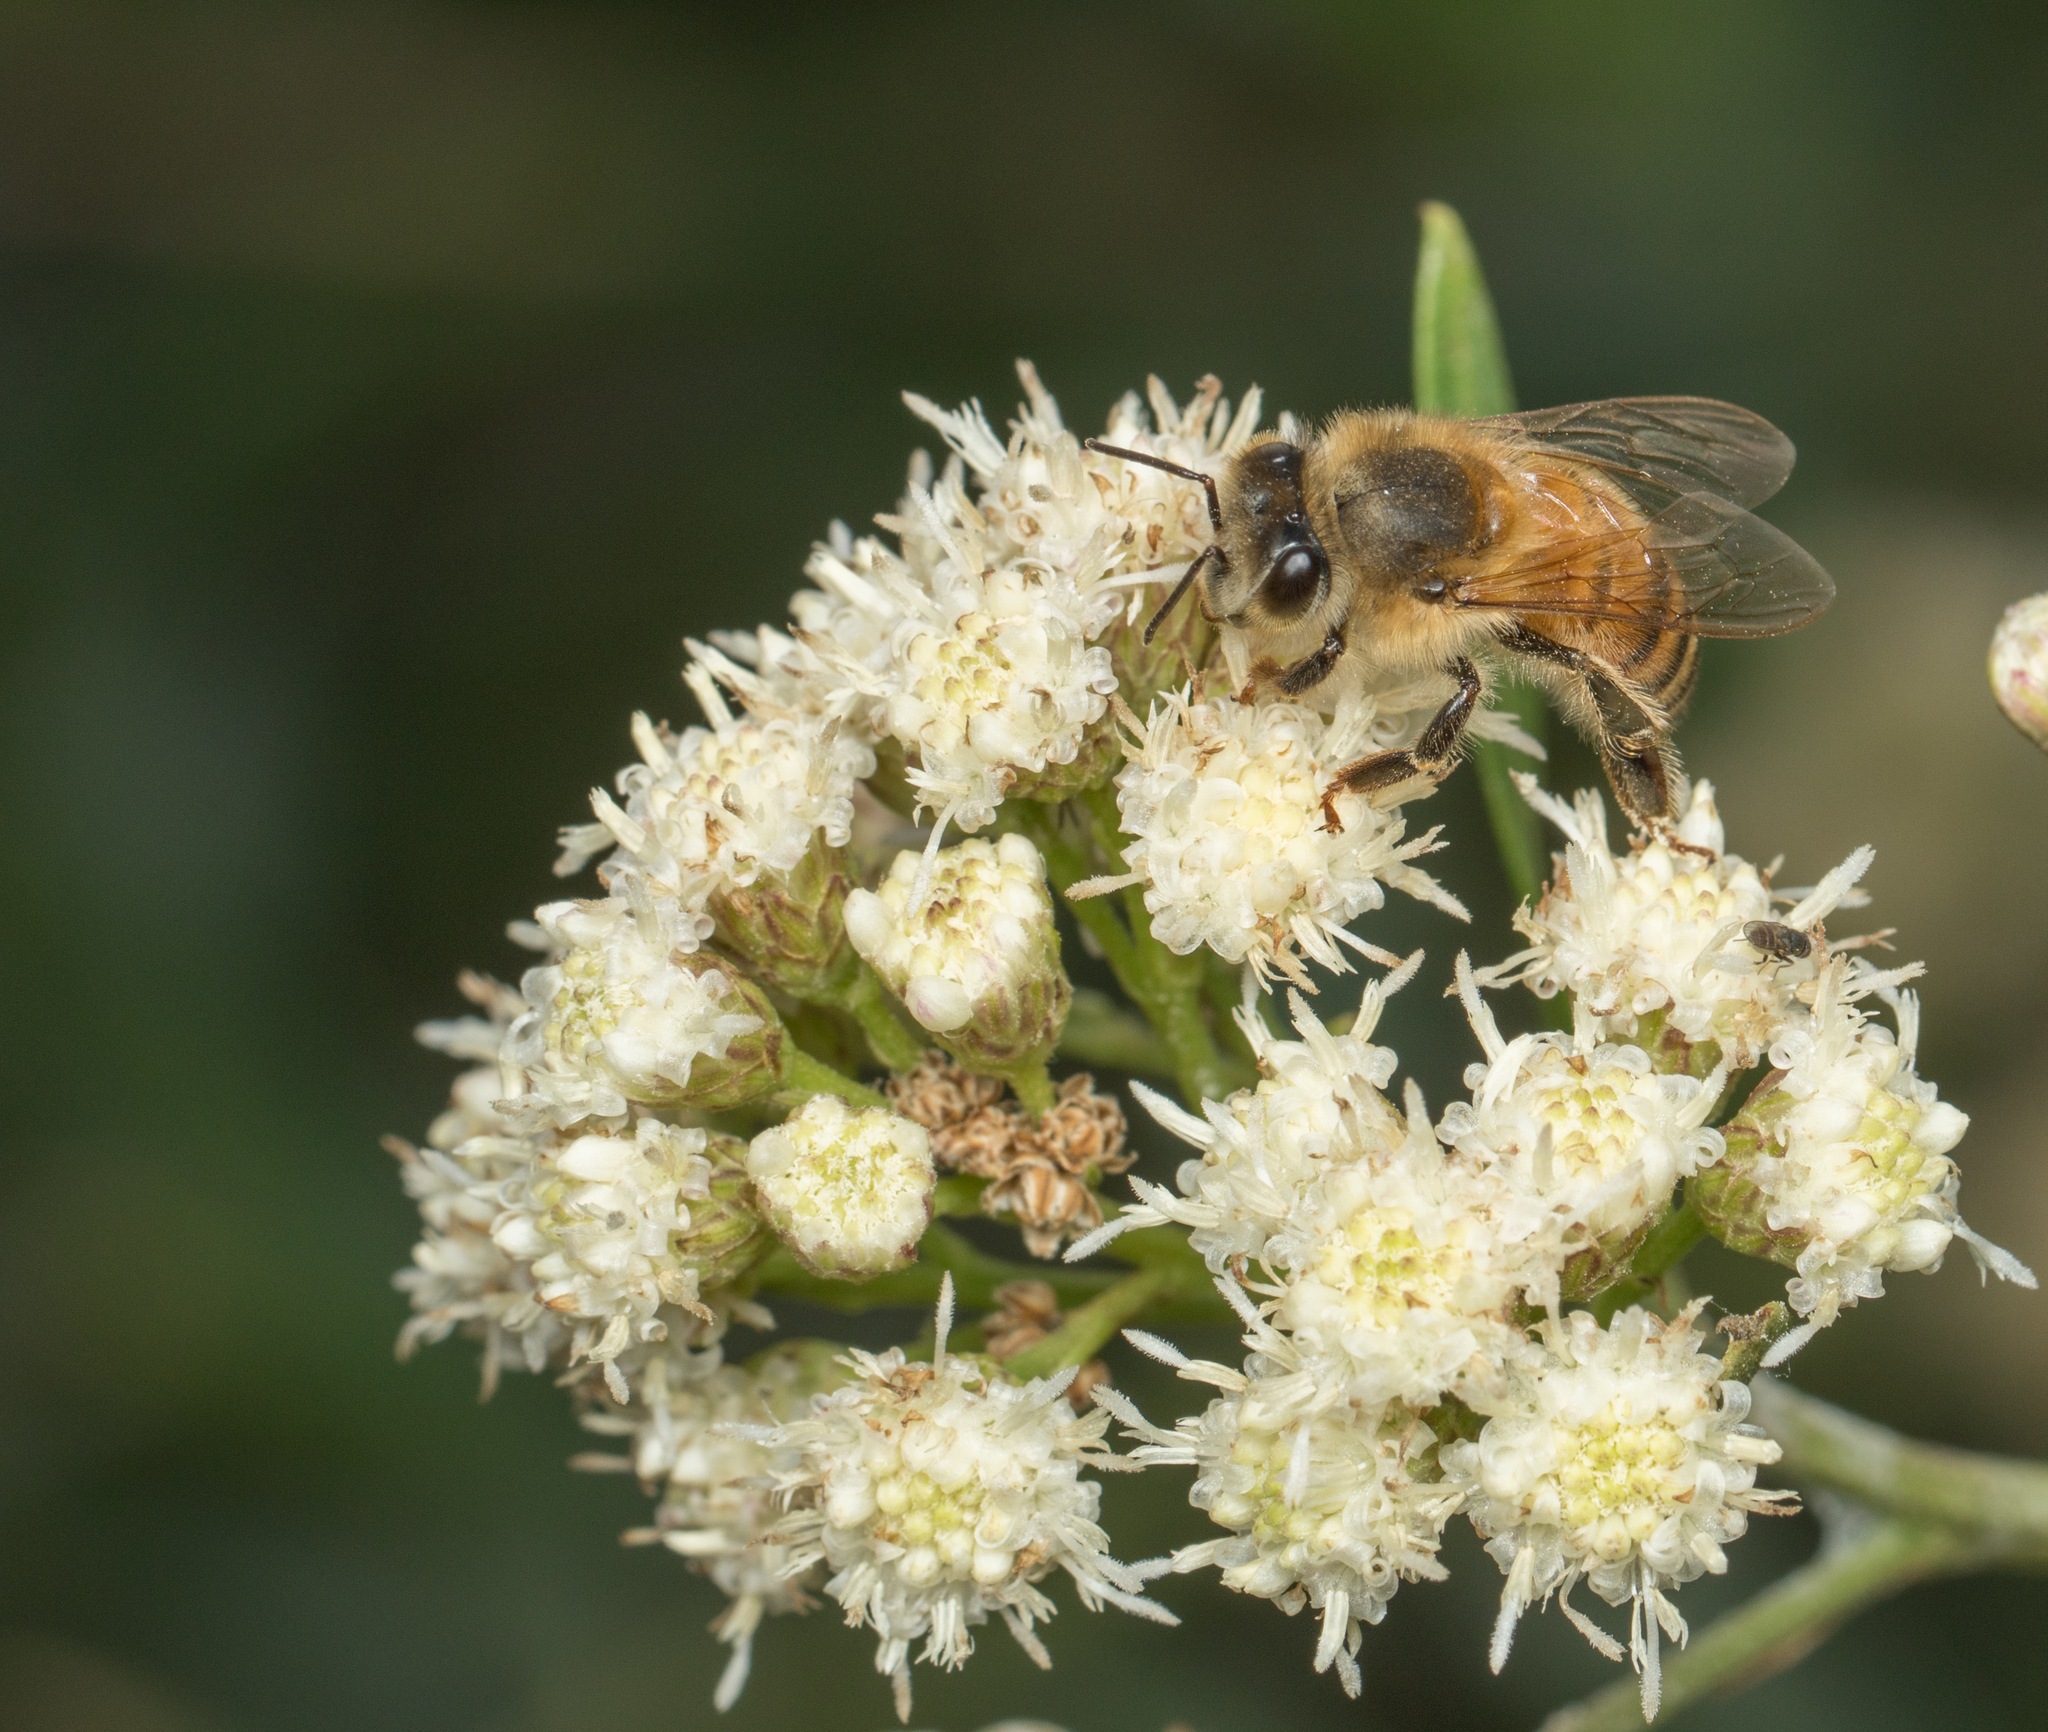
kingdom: Animalia
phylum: Arthropoda
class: Insecta
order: Hymenoptera
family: Apidae
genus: Apis
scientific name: Apis mellifera
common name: Honey bee
